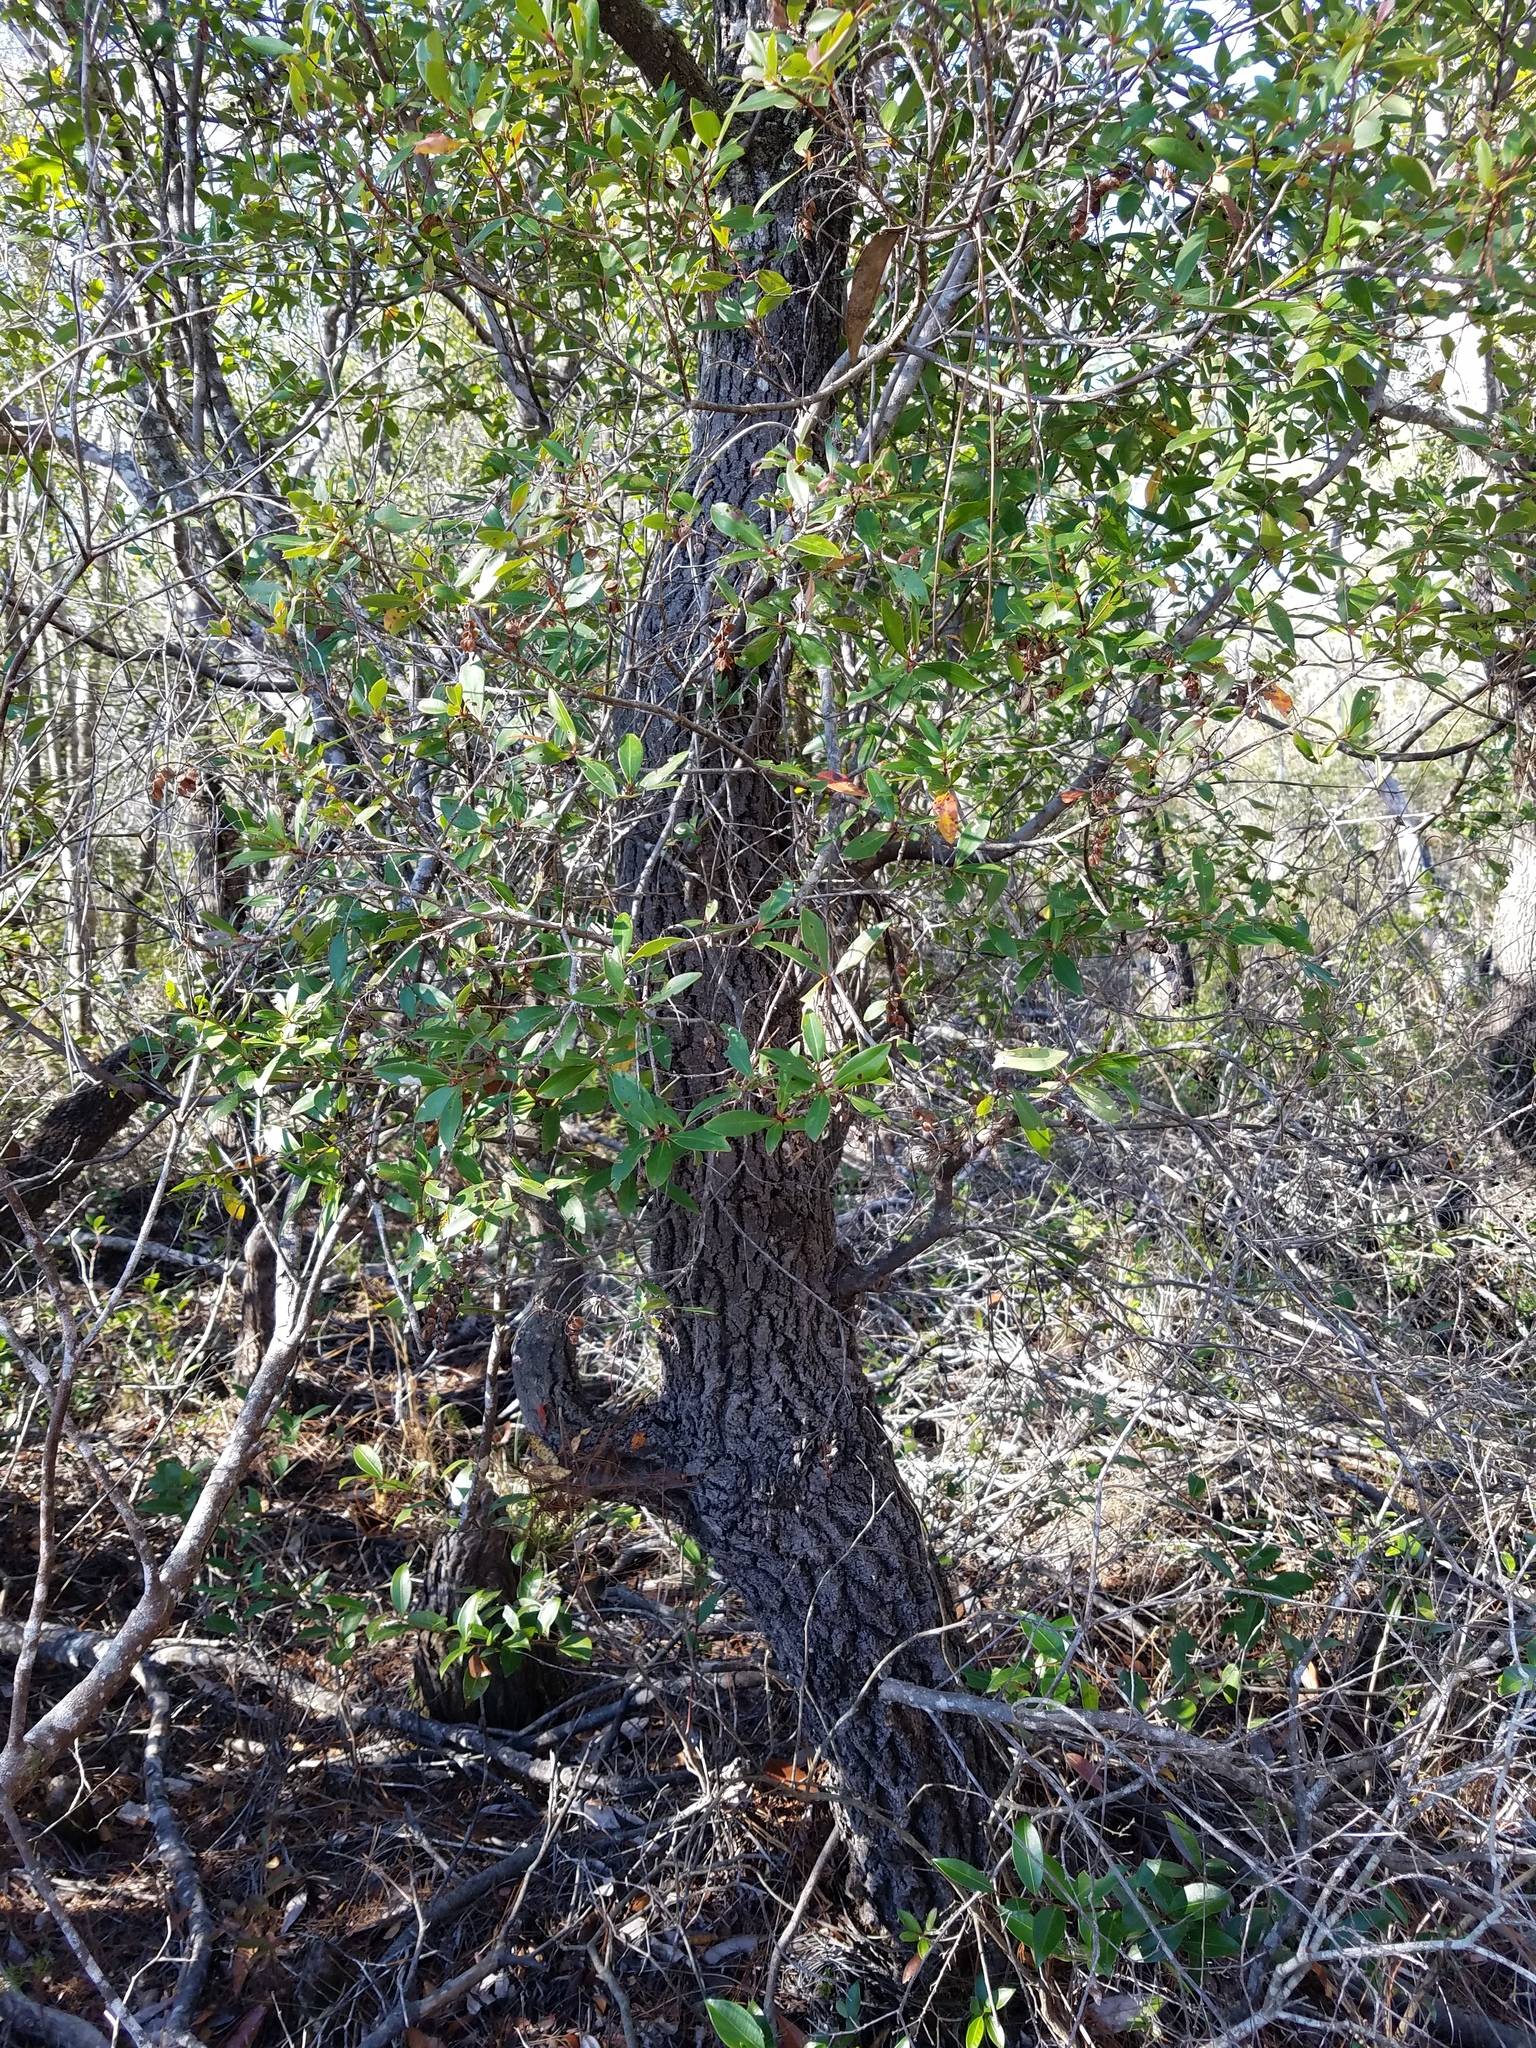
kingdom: Plantae
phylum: Tracheophyta
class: Magnoliopsida
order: Ericales
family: Cyrillaceae
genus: Cliftonia
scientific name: Cliftonia monophylla
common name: Titi
